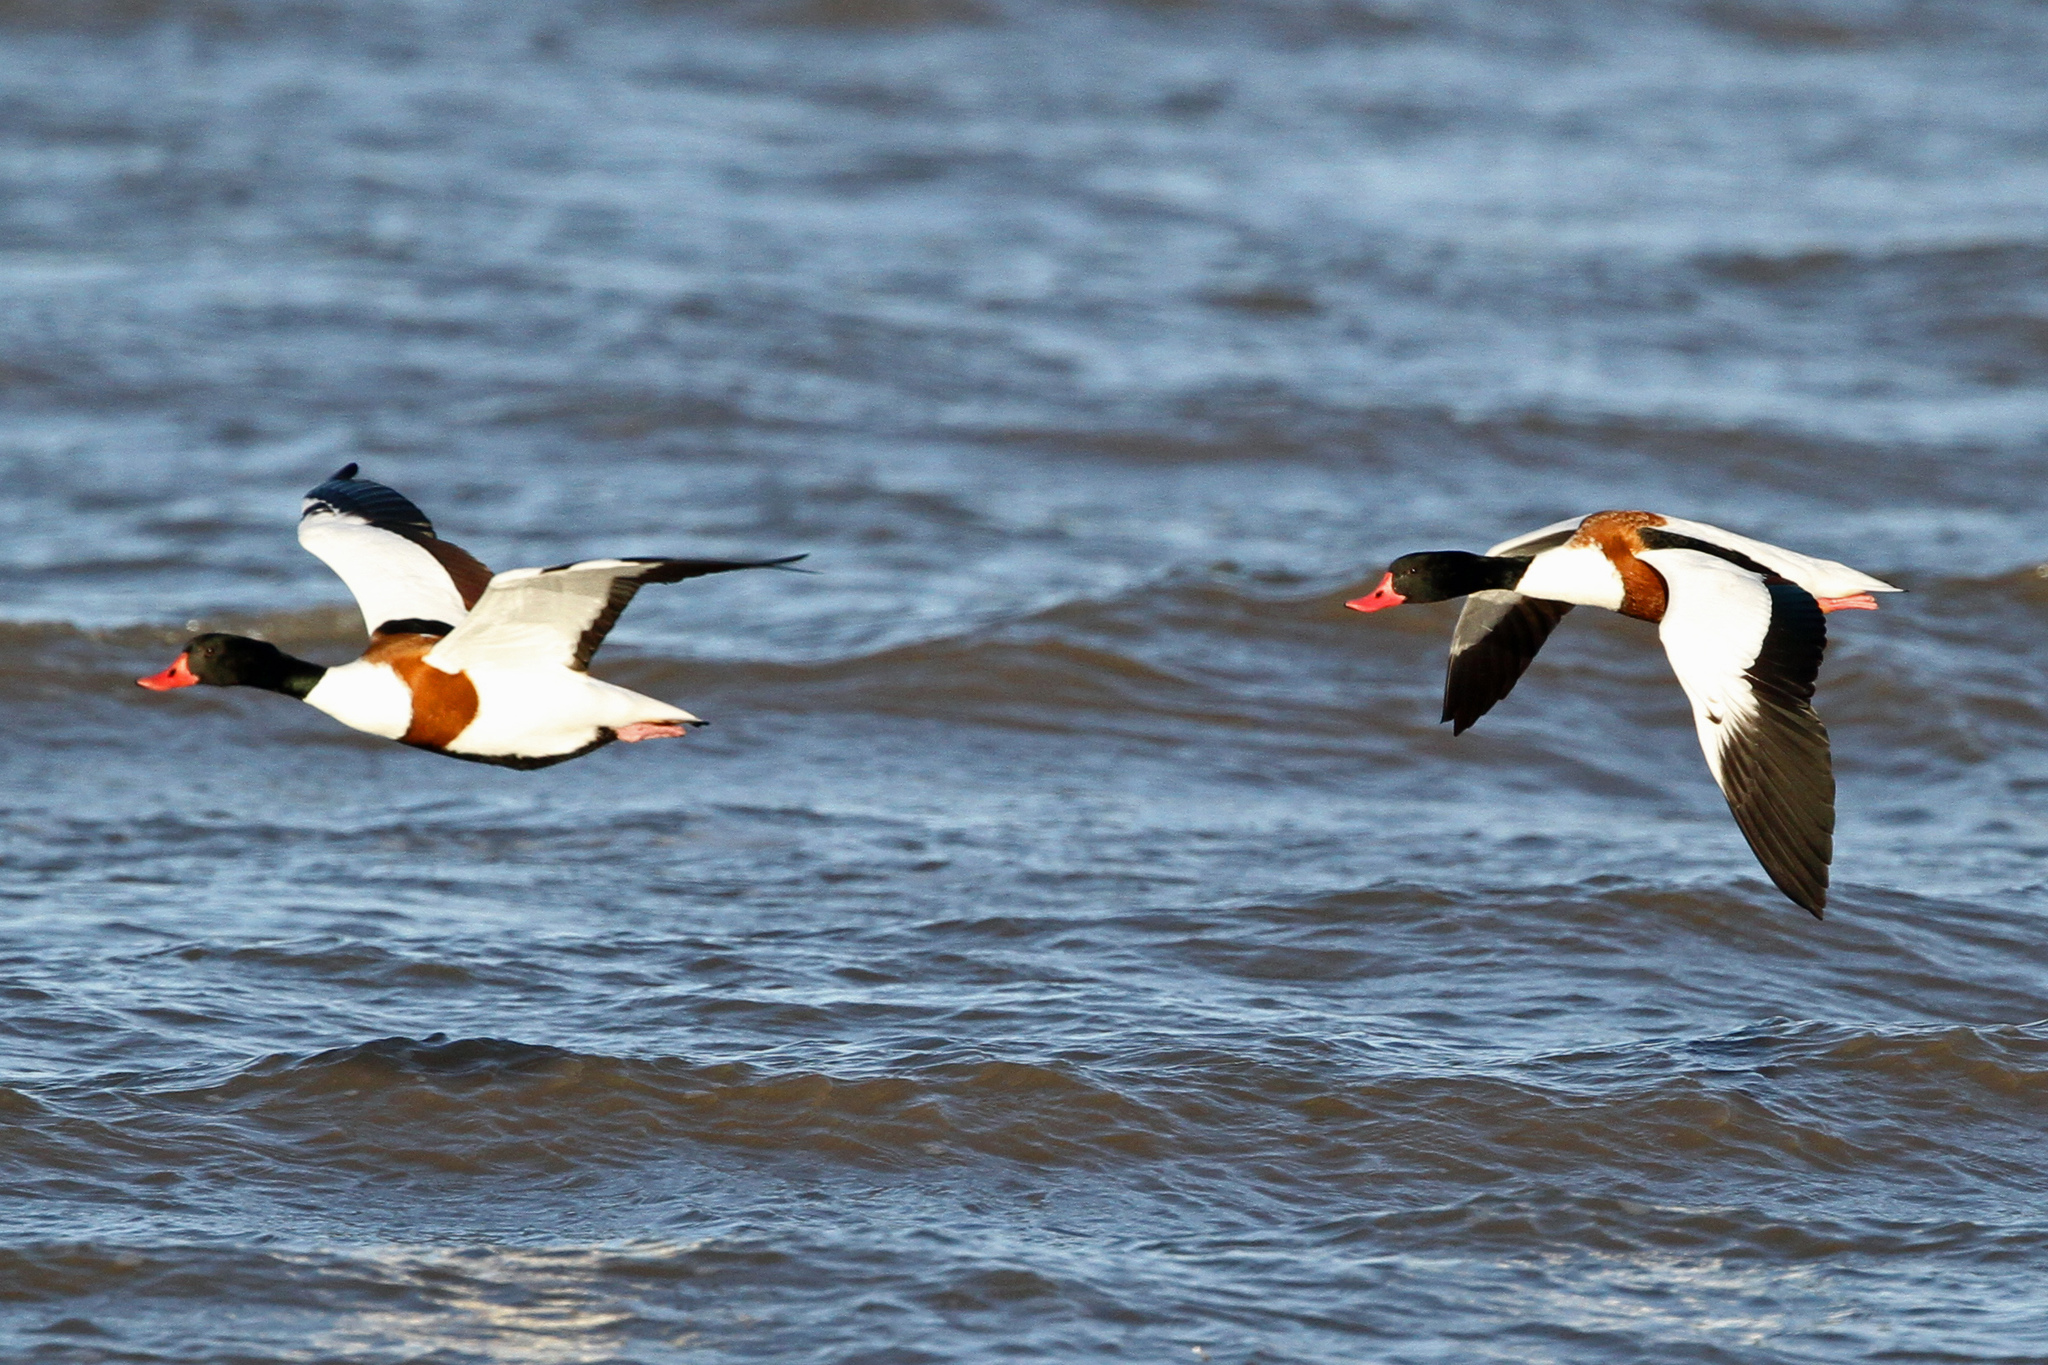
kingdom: Animalia
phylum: Chordata
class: Aves
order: Anseriformes
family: Anatidae
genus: Tadorna
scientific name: Tadorna tadorna
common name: Common shelduck
